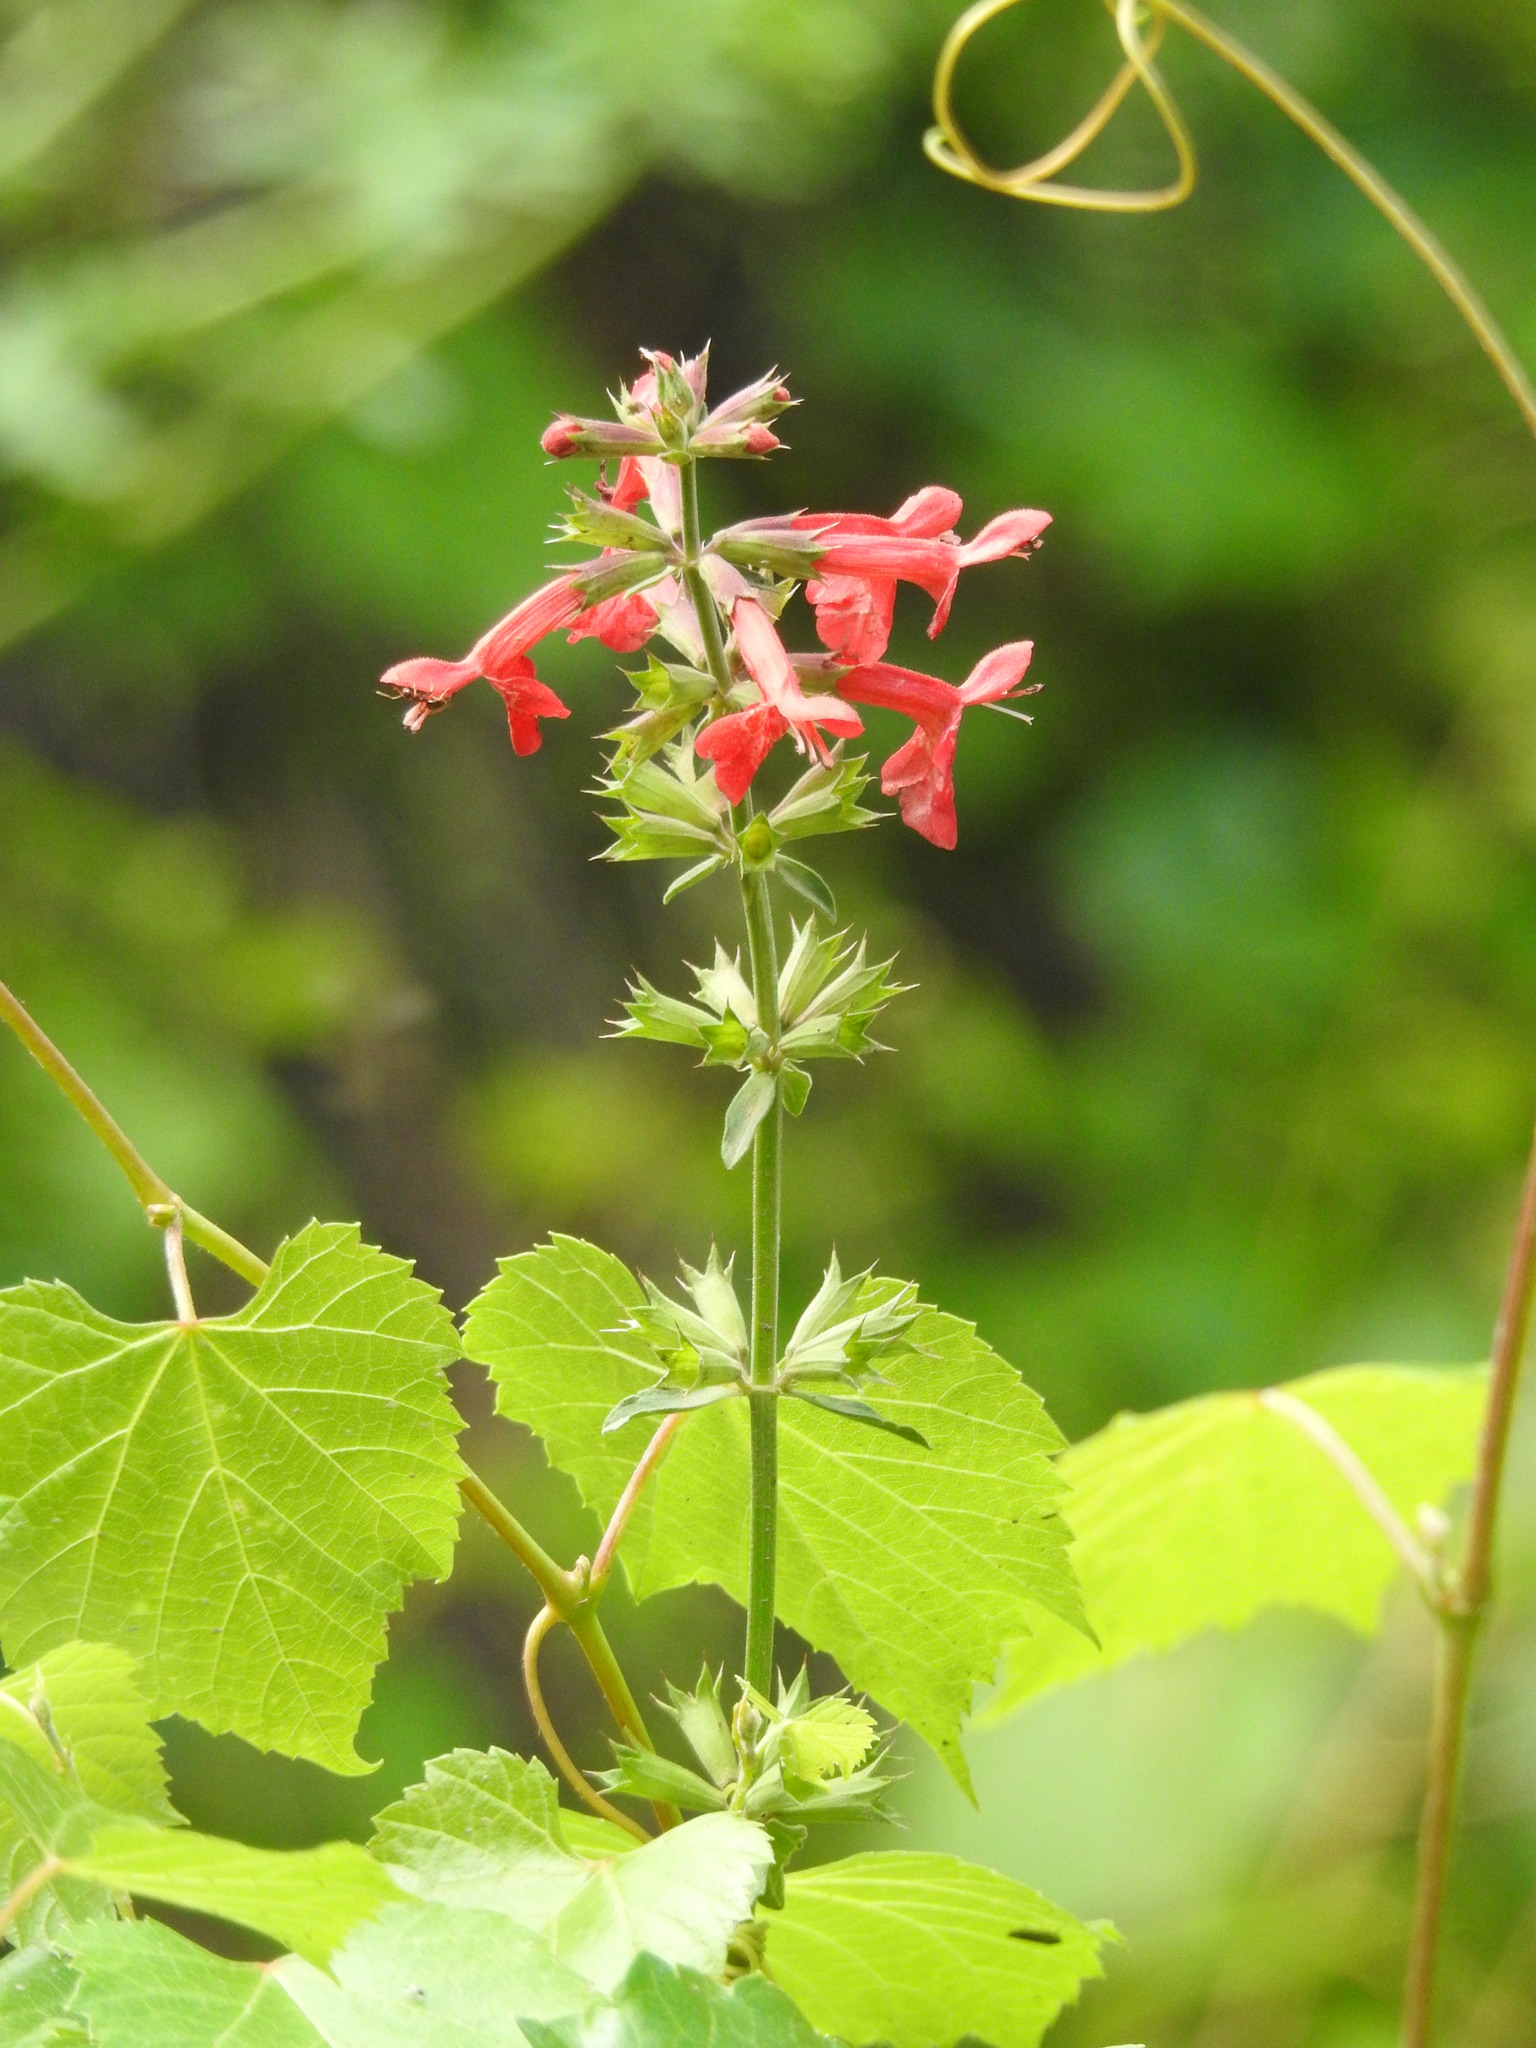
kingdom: Plantae
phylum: Tracheophyta
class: Magnoliopsida
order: Lamiales
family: Lamiaceae
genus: Stachys
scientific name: Stachys coccinea
